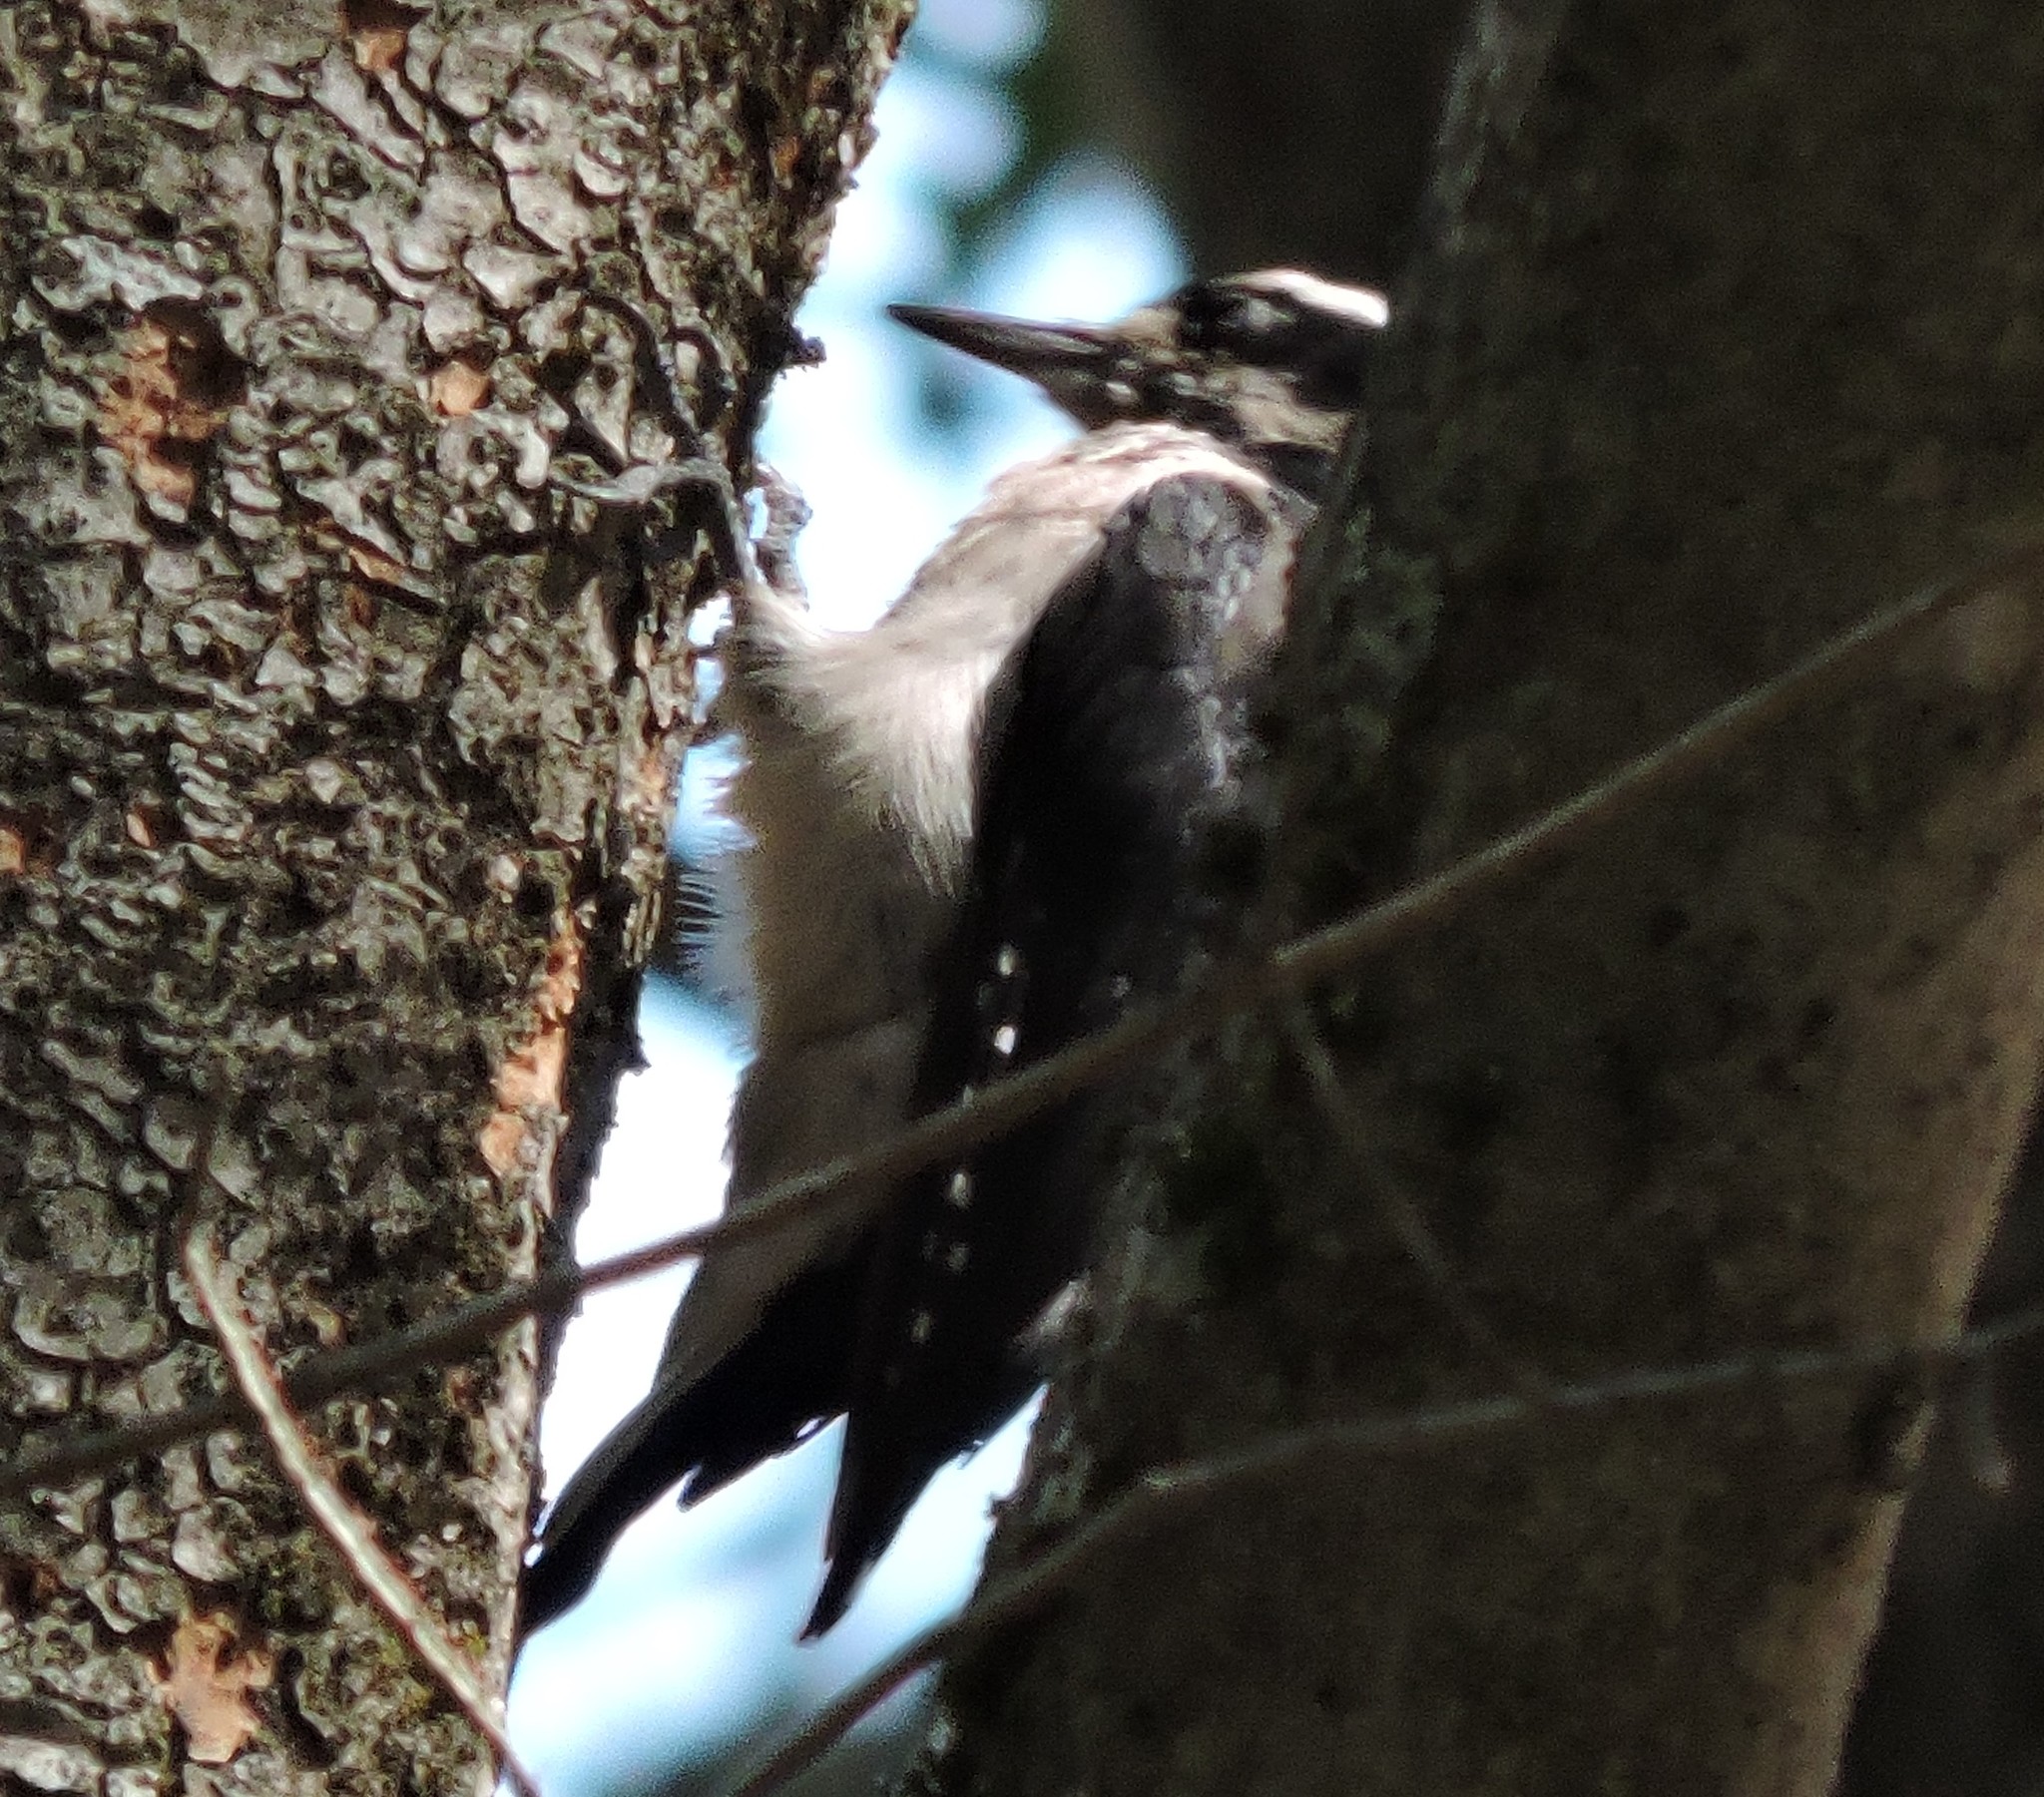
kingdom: Animalia
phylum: Chordata
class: Aves
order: Piciformes
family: Picidae
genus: Leuconotopicus
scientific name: Leuconotopicus villosus
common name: Hairy woodpecker
